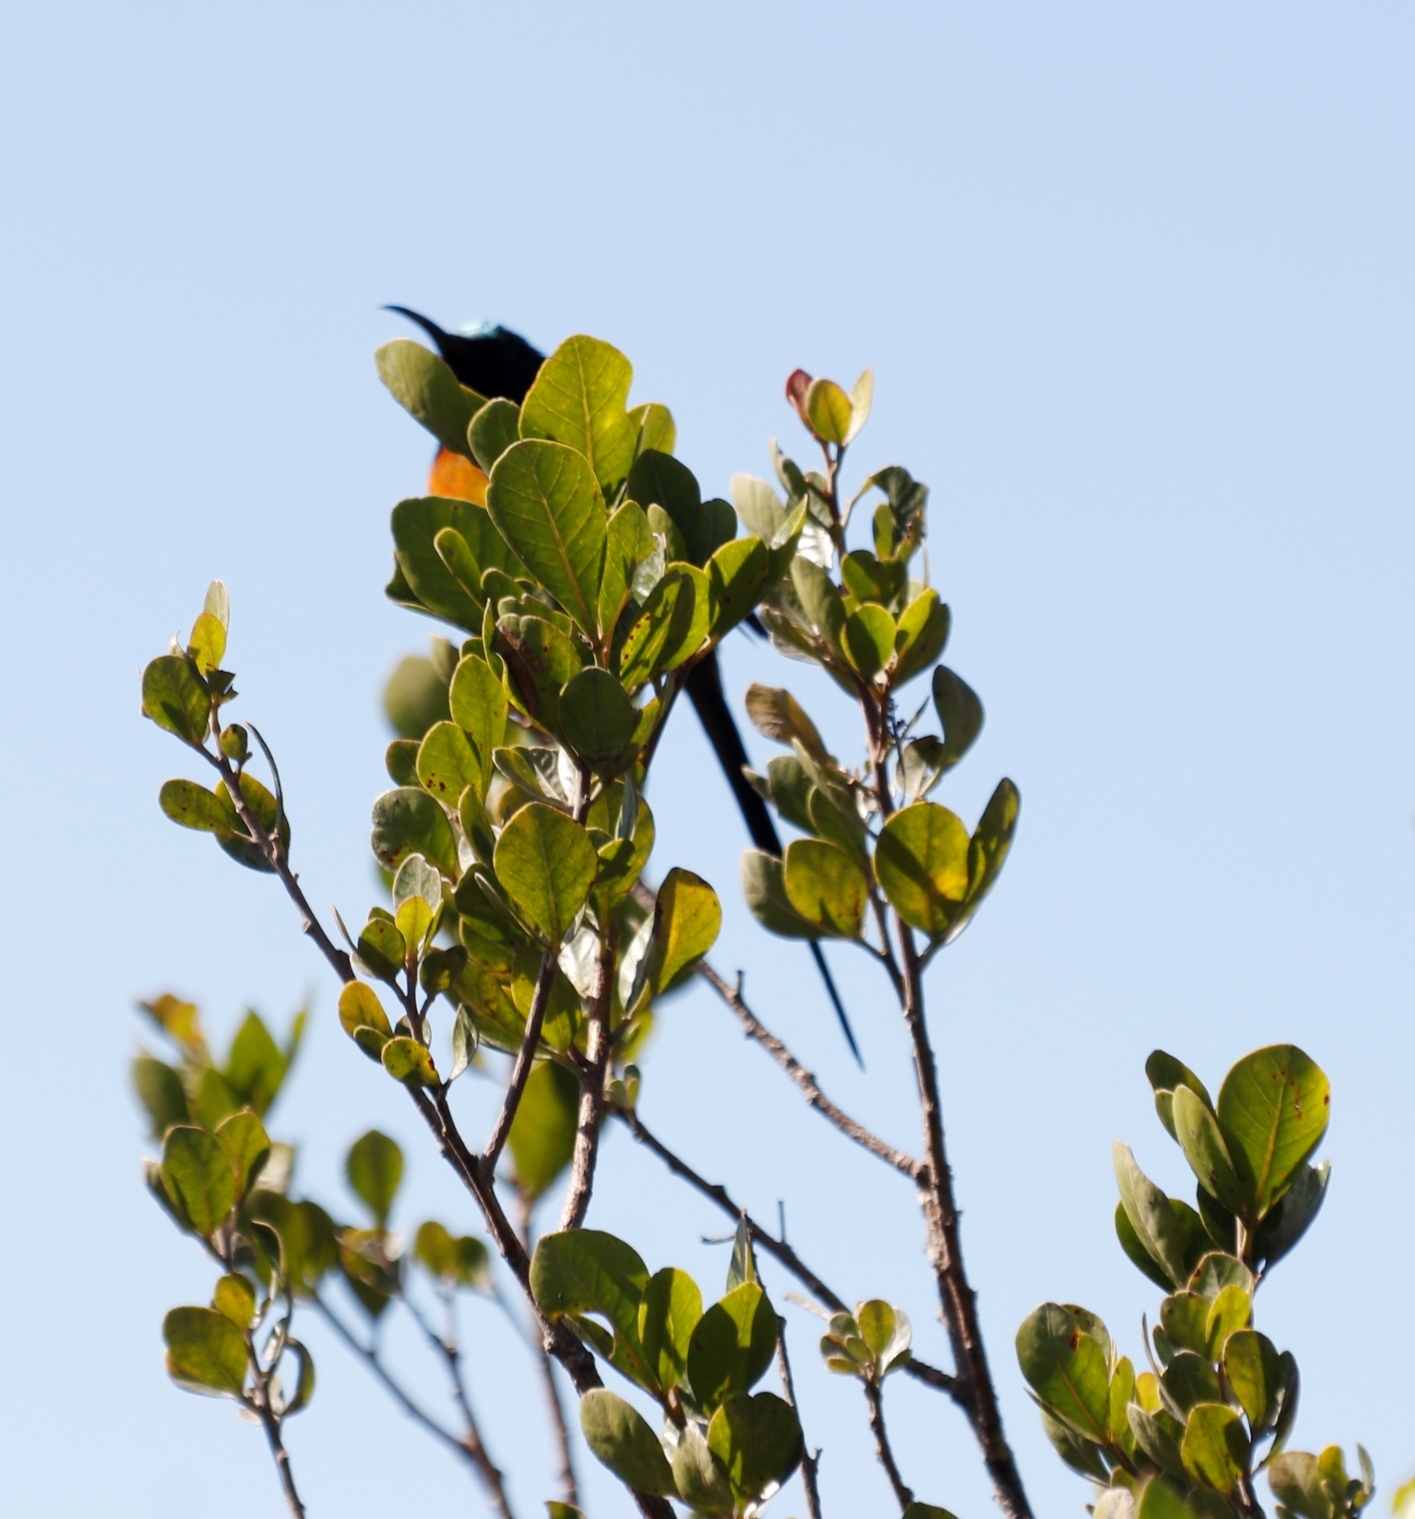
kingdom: Animalia
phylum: Chordata
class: Aves
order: Passeriformes
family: Nectariniidae
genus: Anthobaphes
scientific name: Anthobaphes violacea
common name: Orange-breasted sunbird
